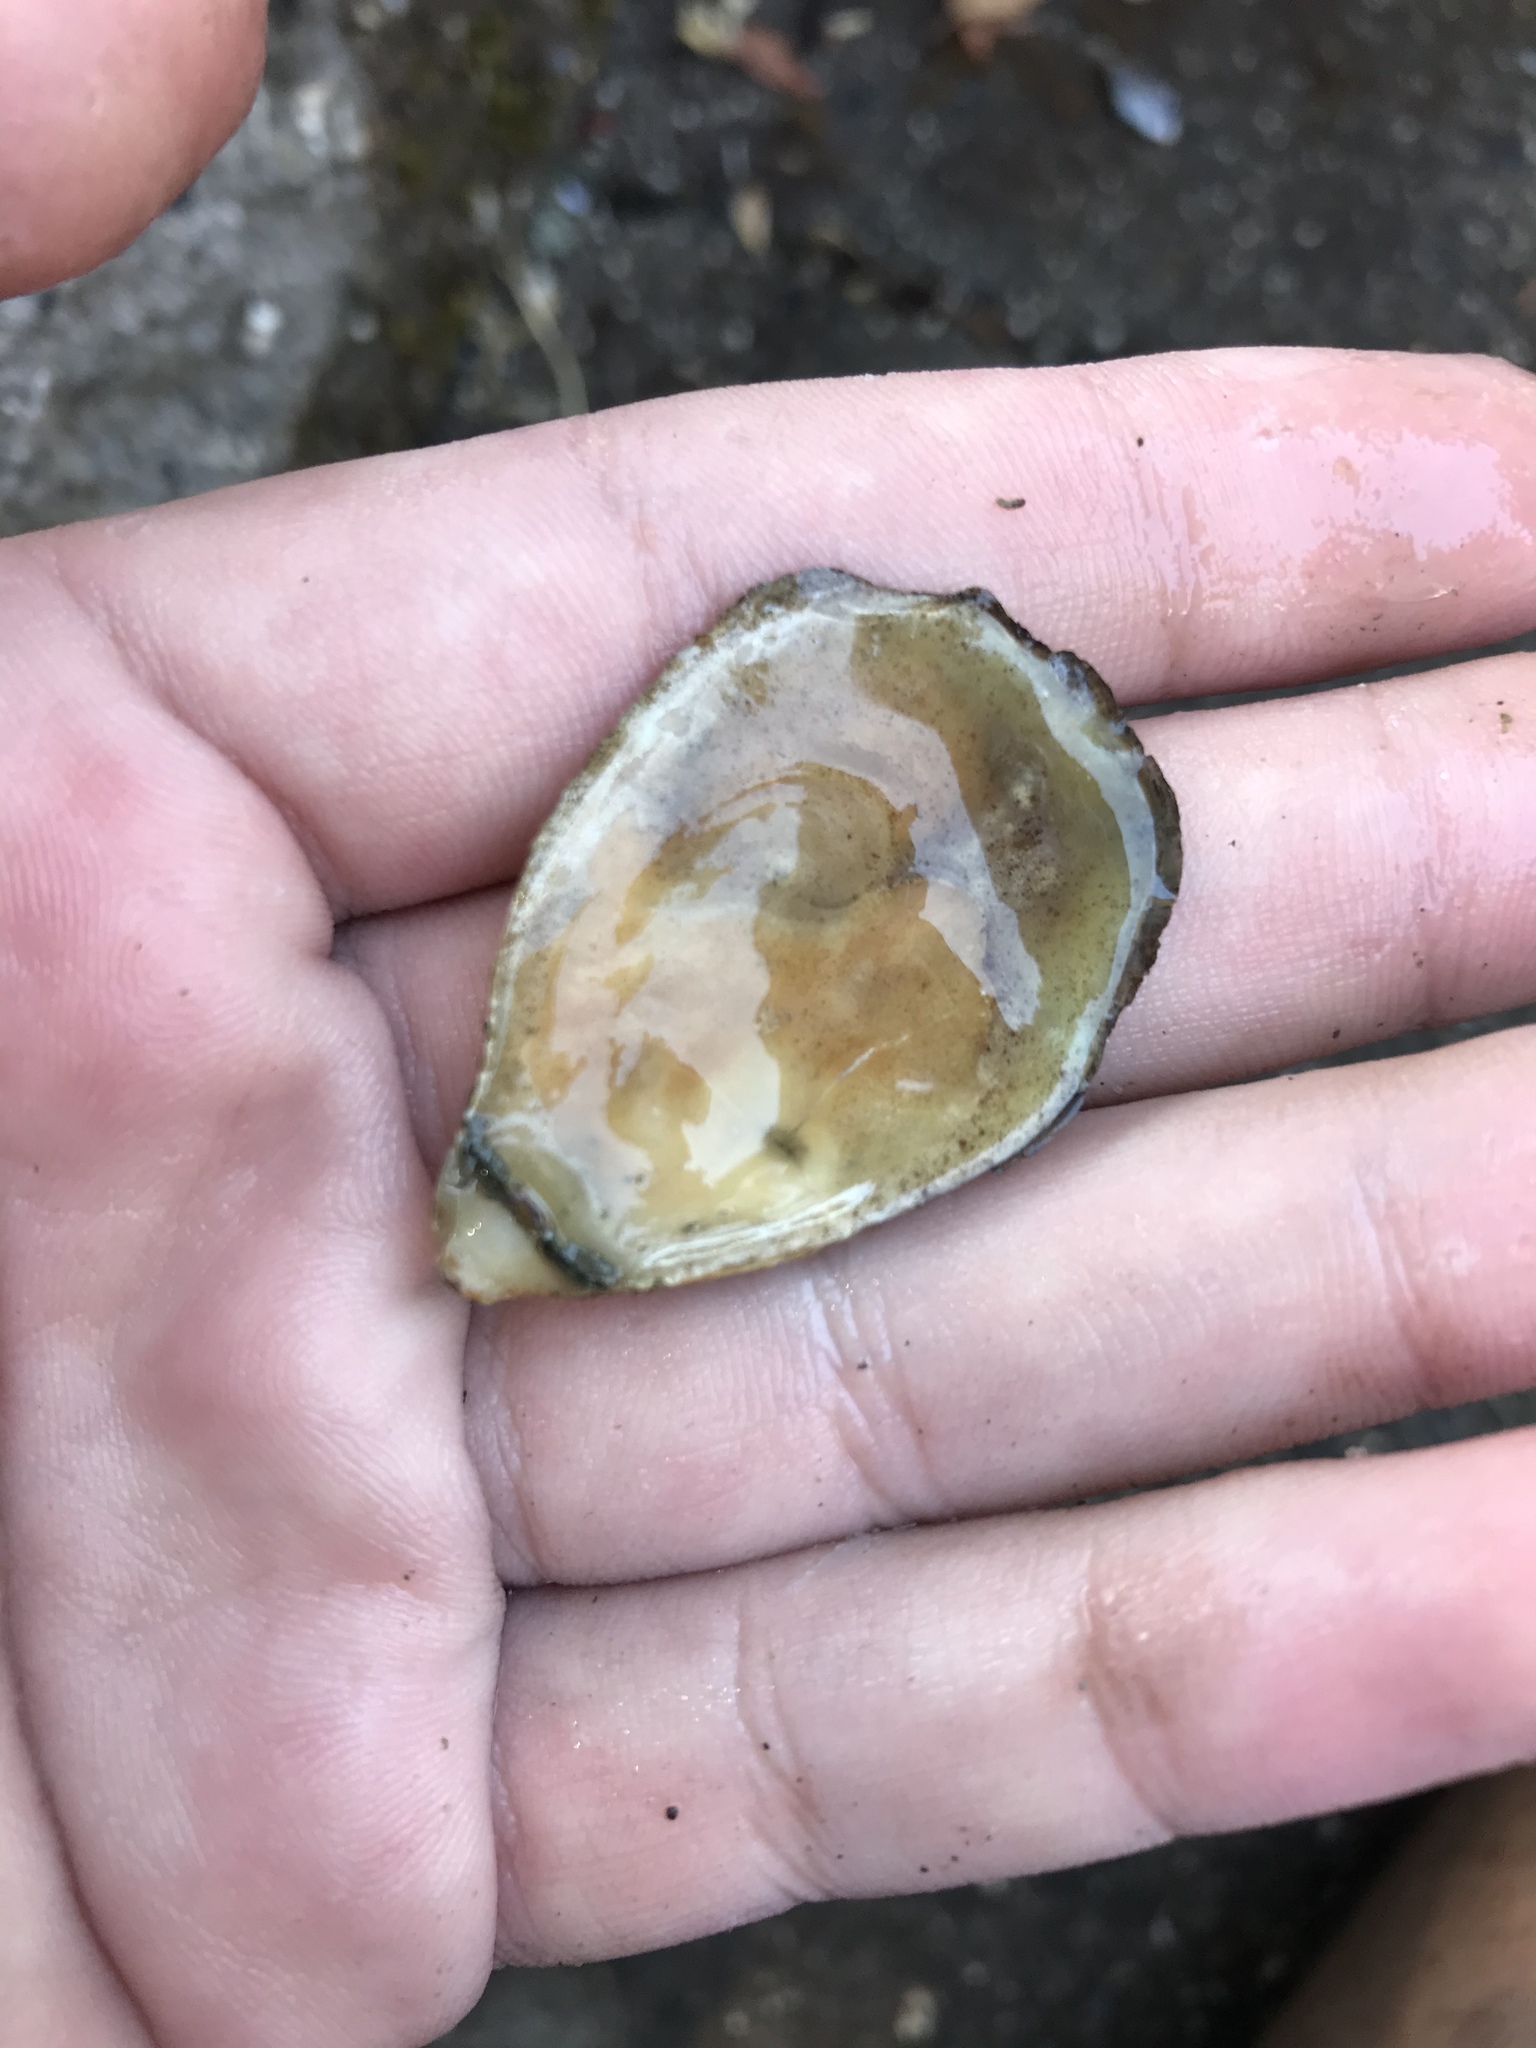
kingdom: Animalia
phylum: Mollusca
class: Bivalvia
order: Ostreida
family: Ostreidae
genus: Ostrea
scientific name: Ostrea lurida
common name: Olympia flat oyster
